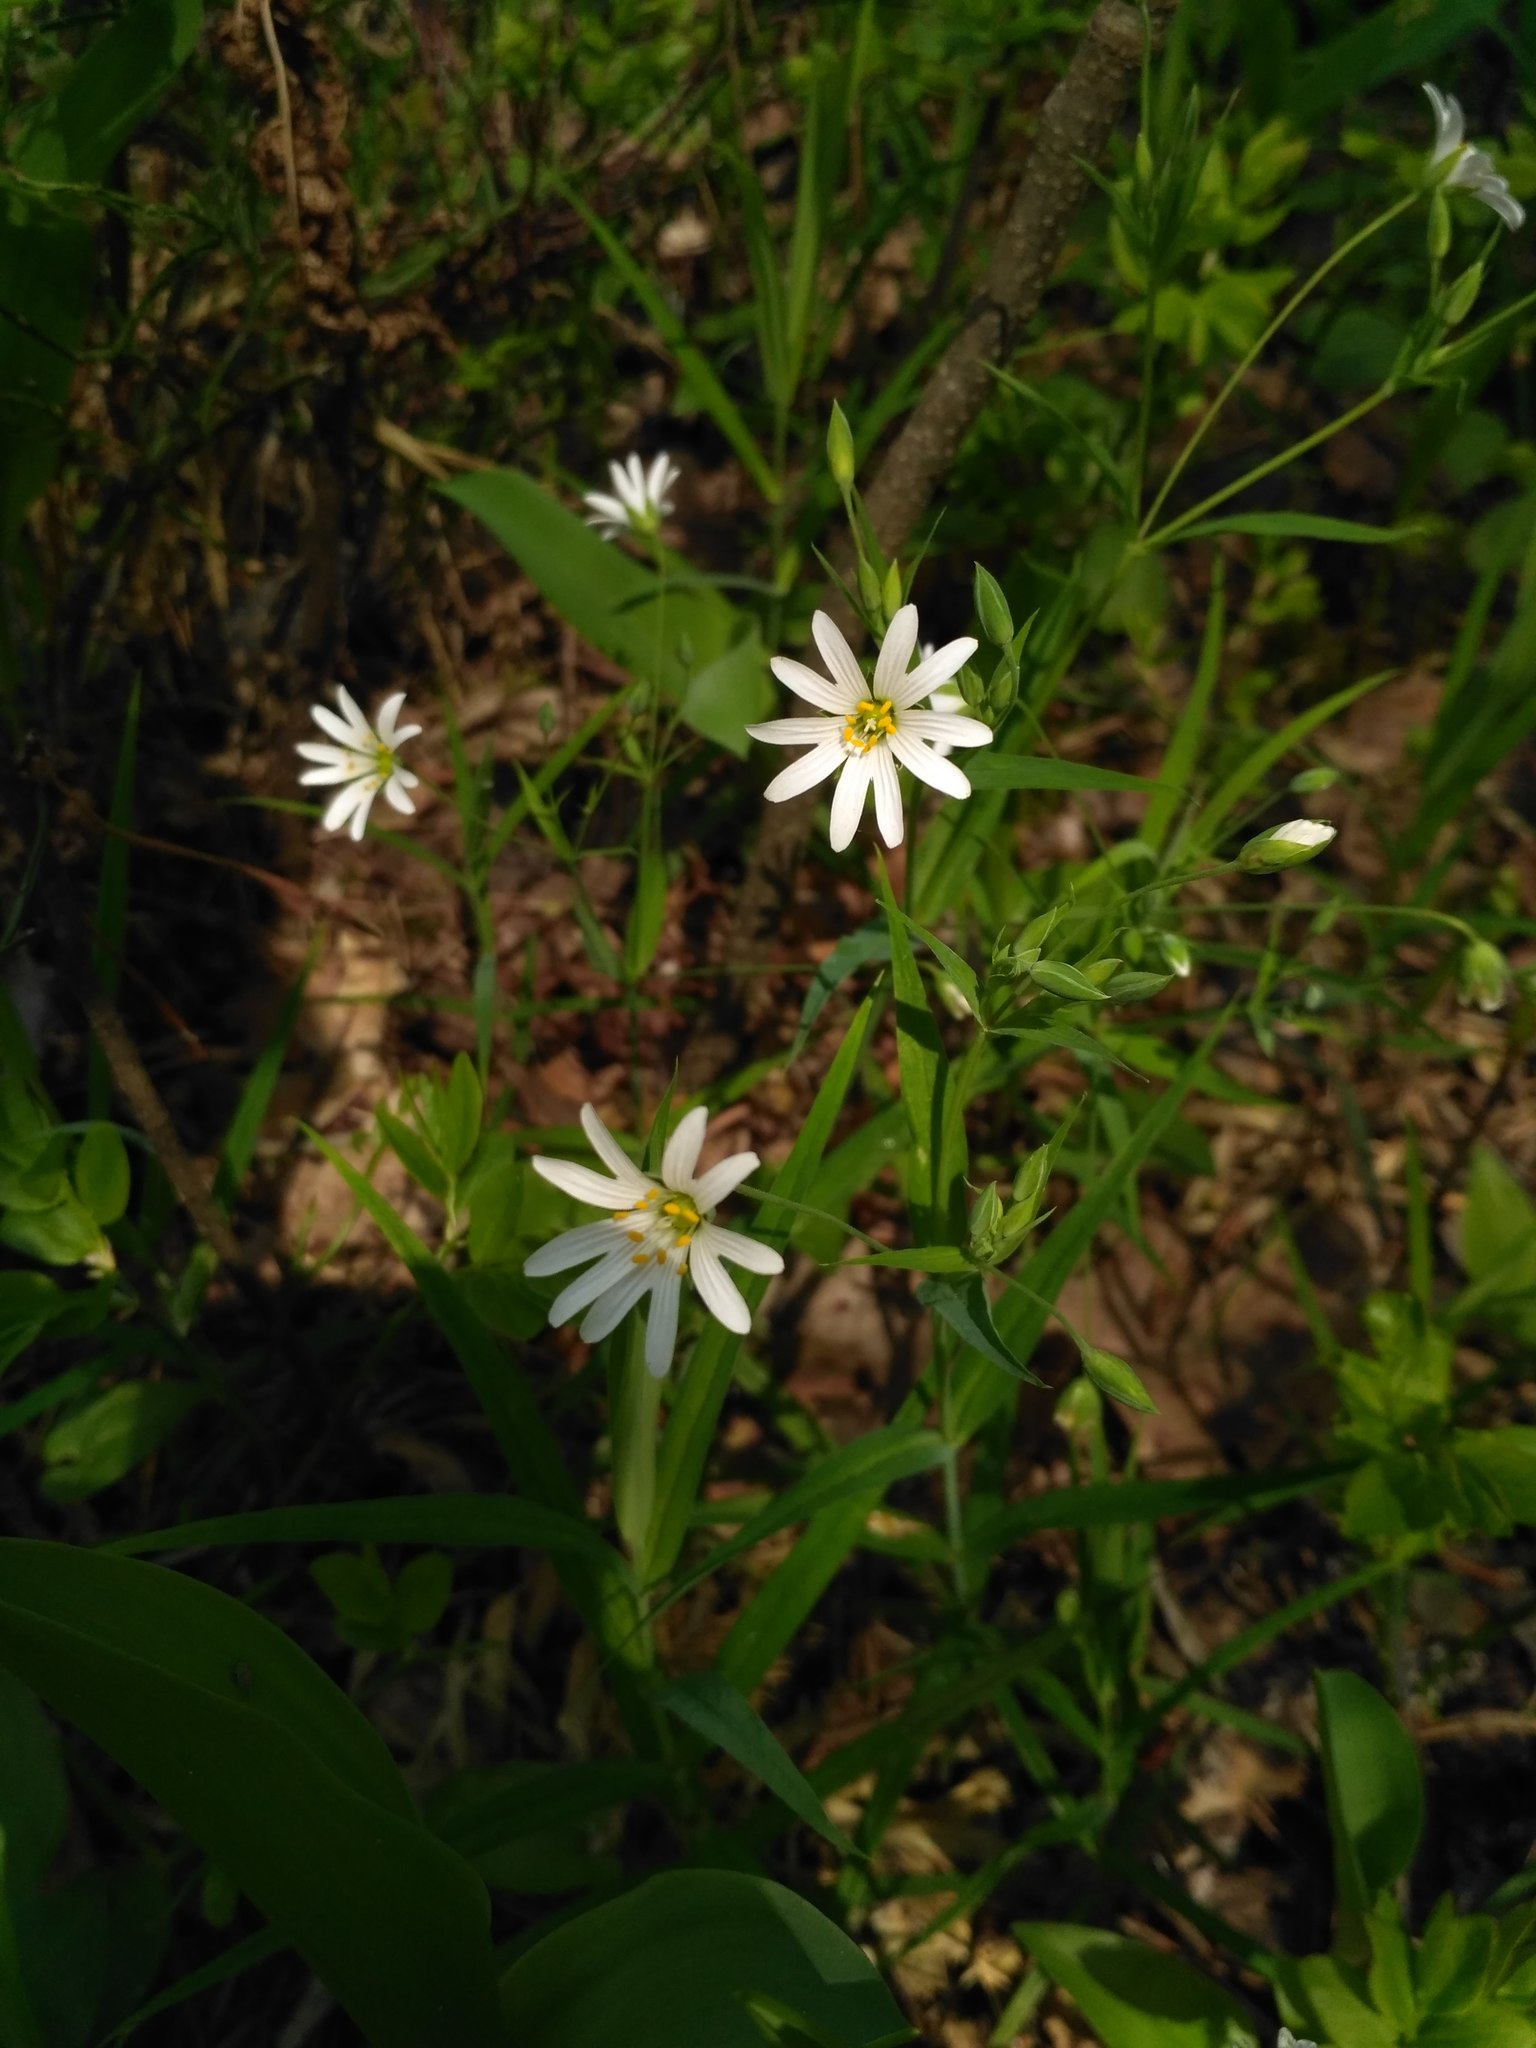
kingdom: Plantae
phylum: Tracheophyta
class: Magnoliopsida
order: Caryophyllales
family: Caryophyllaceae
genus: Rabelera
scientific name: Rabelera holostea
